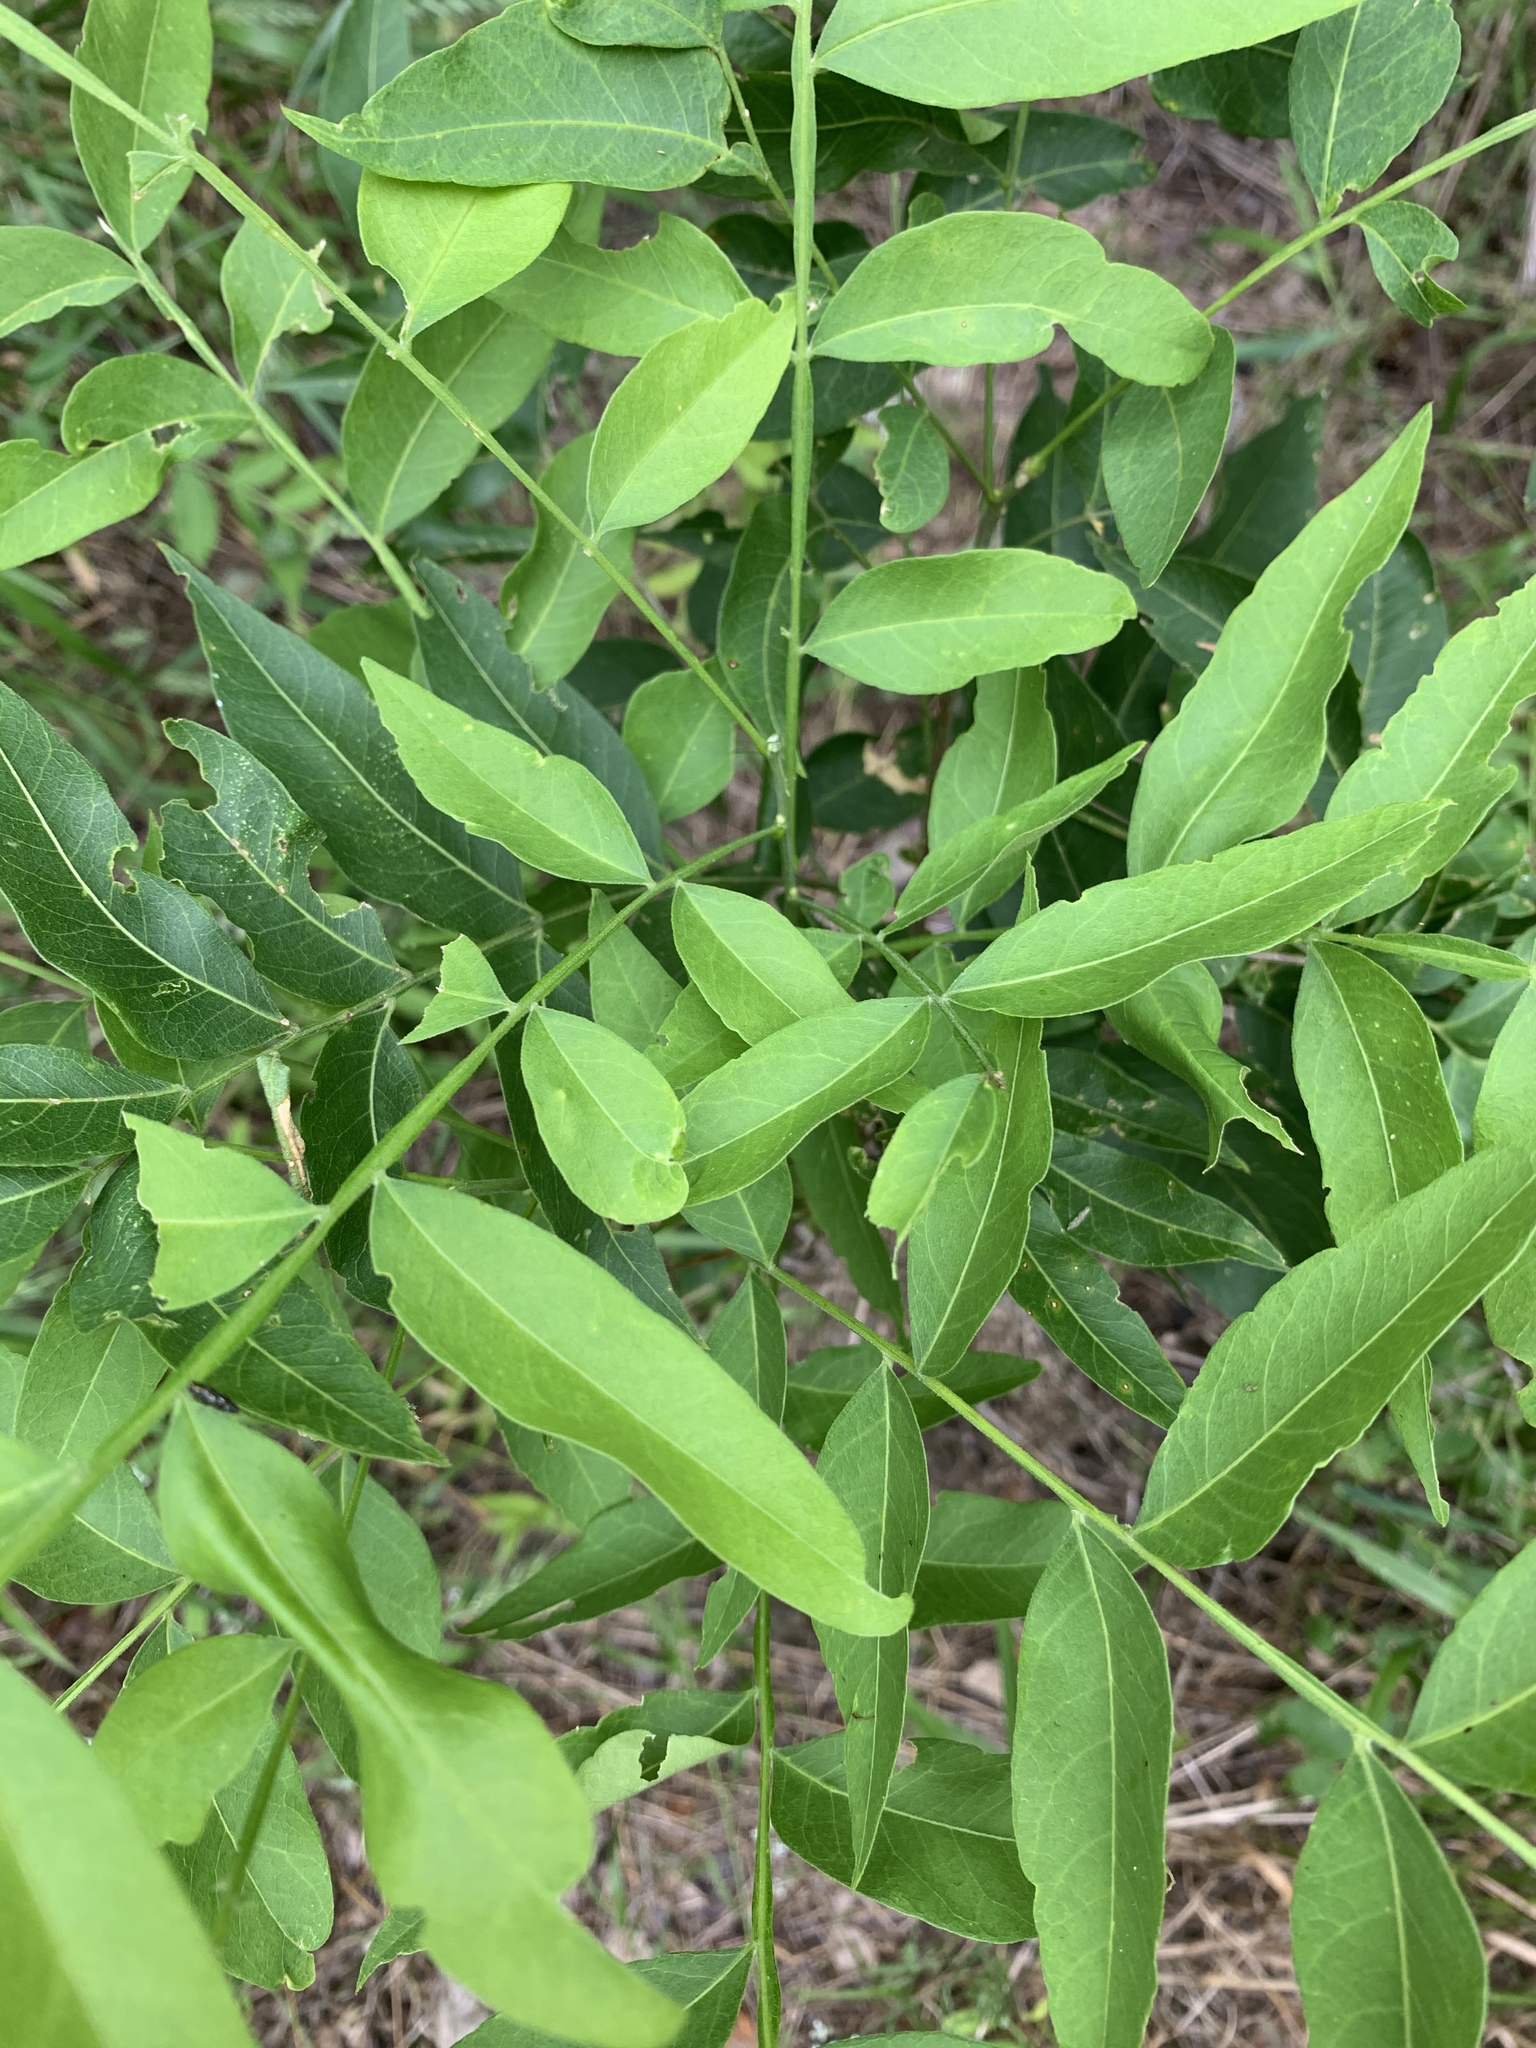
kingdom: Plantae
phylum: Tracheophyta
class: Magnoliopsida
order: Sapindales
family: Sapindaceae
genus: Sapindus
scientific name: Sapindus drummondii
